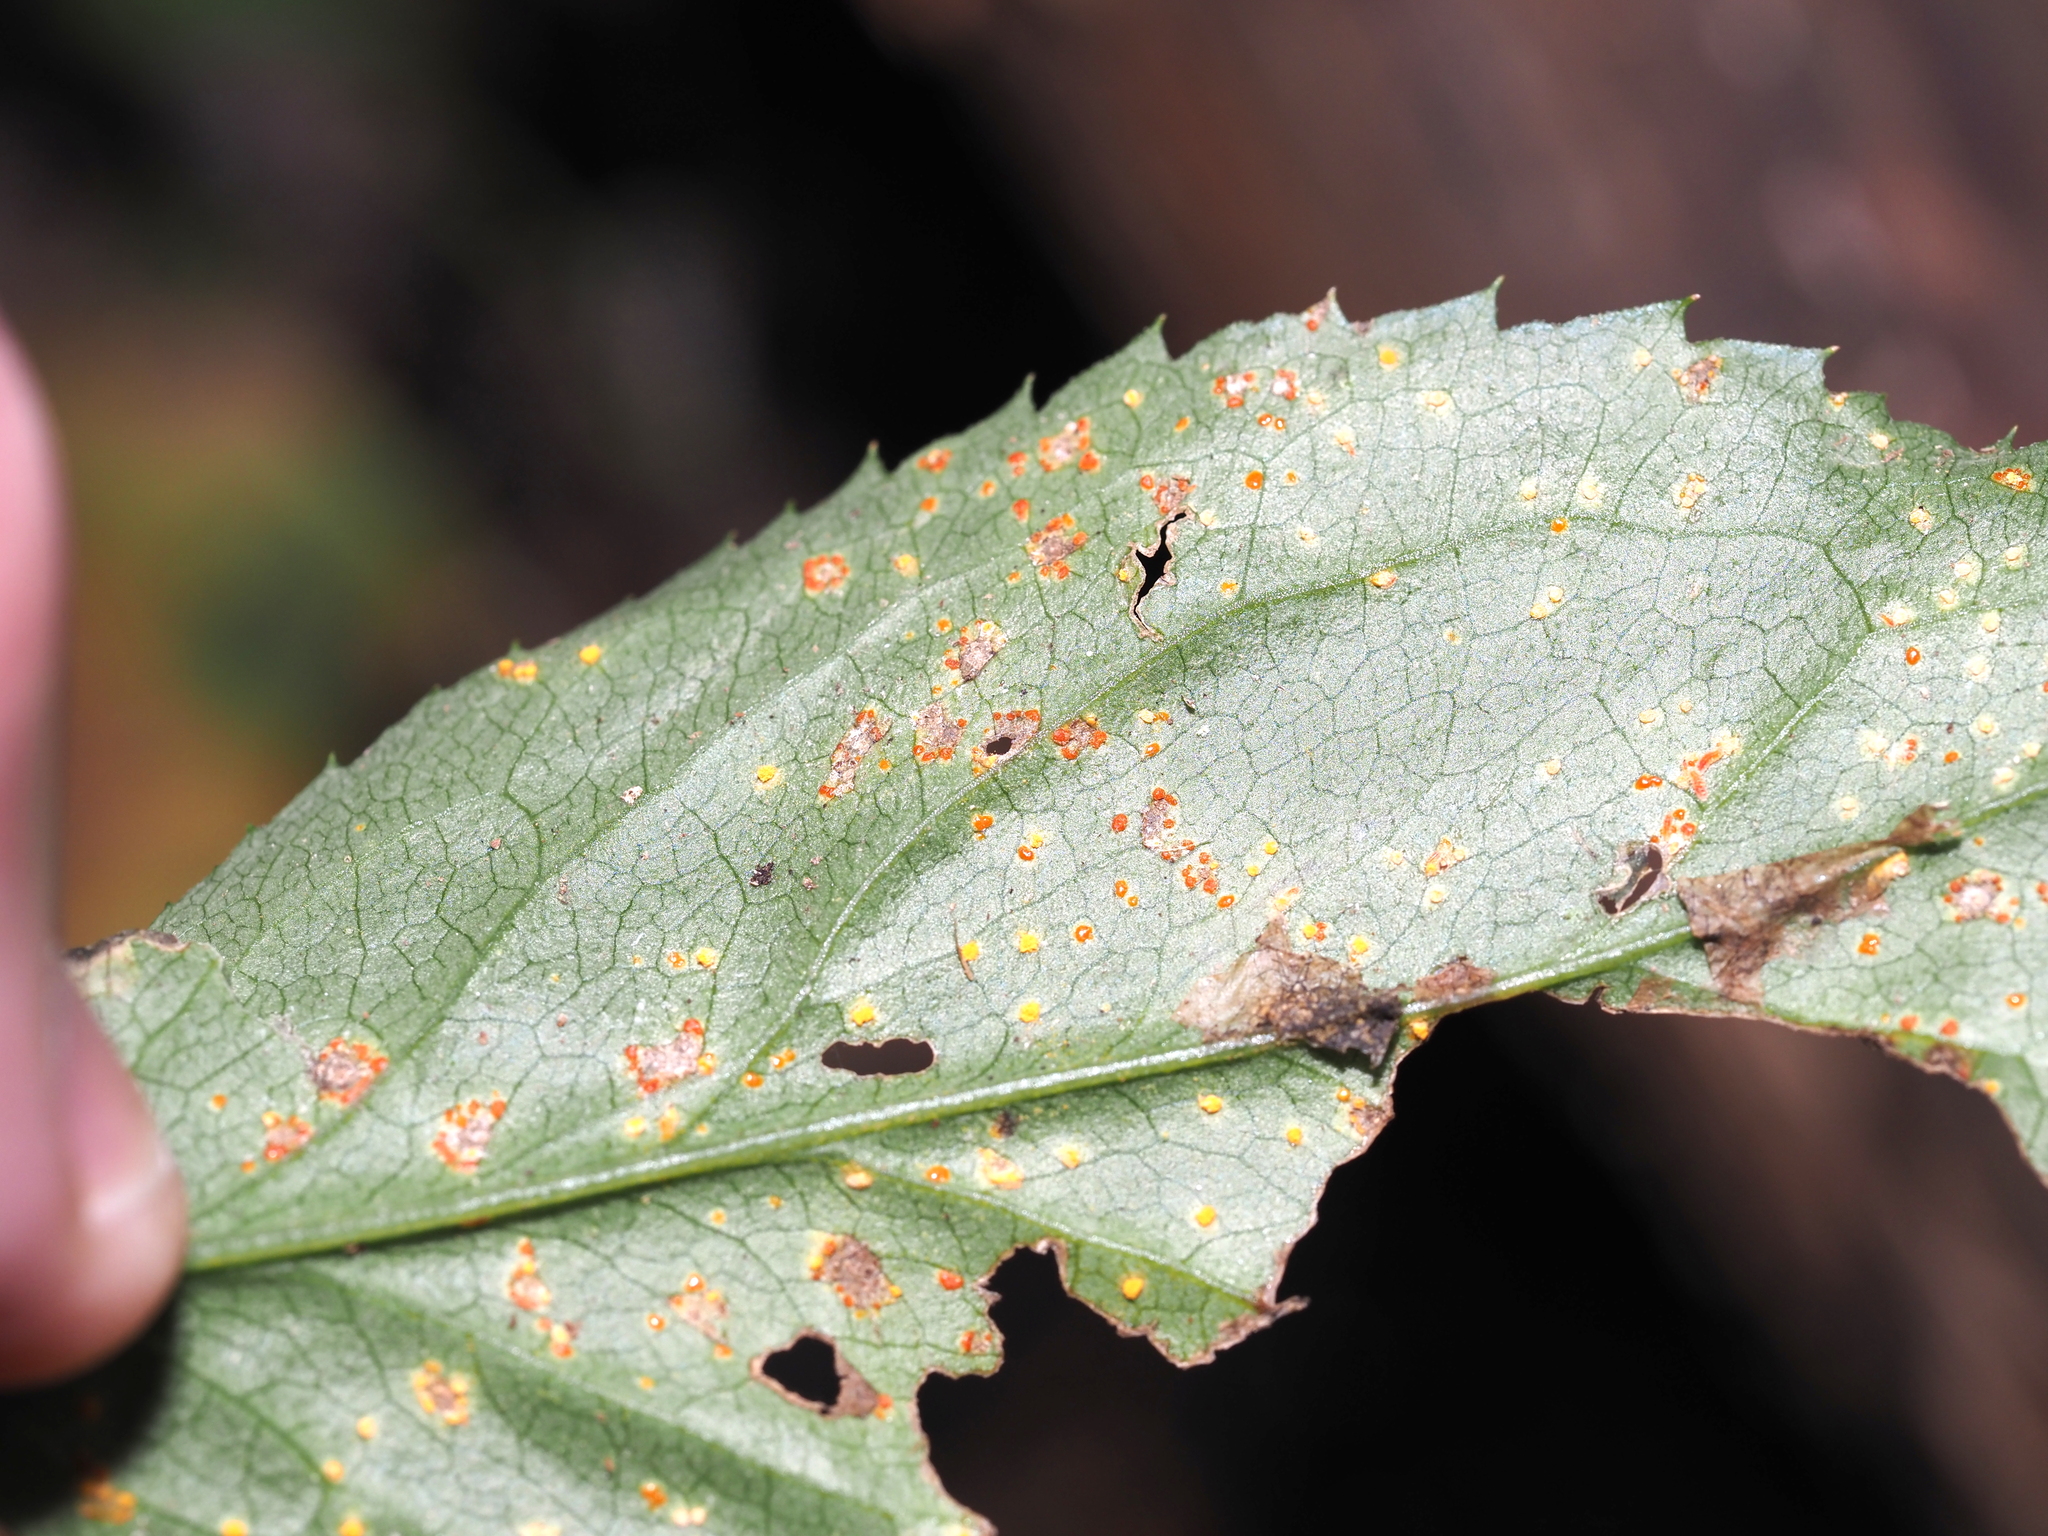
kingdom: Fungi
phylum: Basidiomycota
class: Pucciniomycetes
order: Pucciniales
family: Coleosporiaceae
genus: Coleosporium
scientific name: Coleosporium asterum
